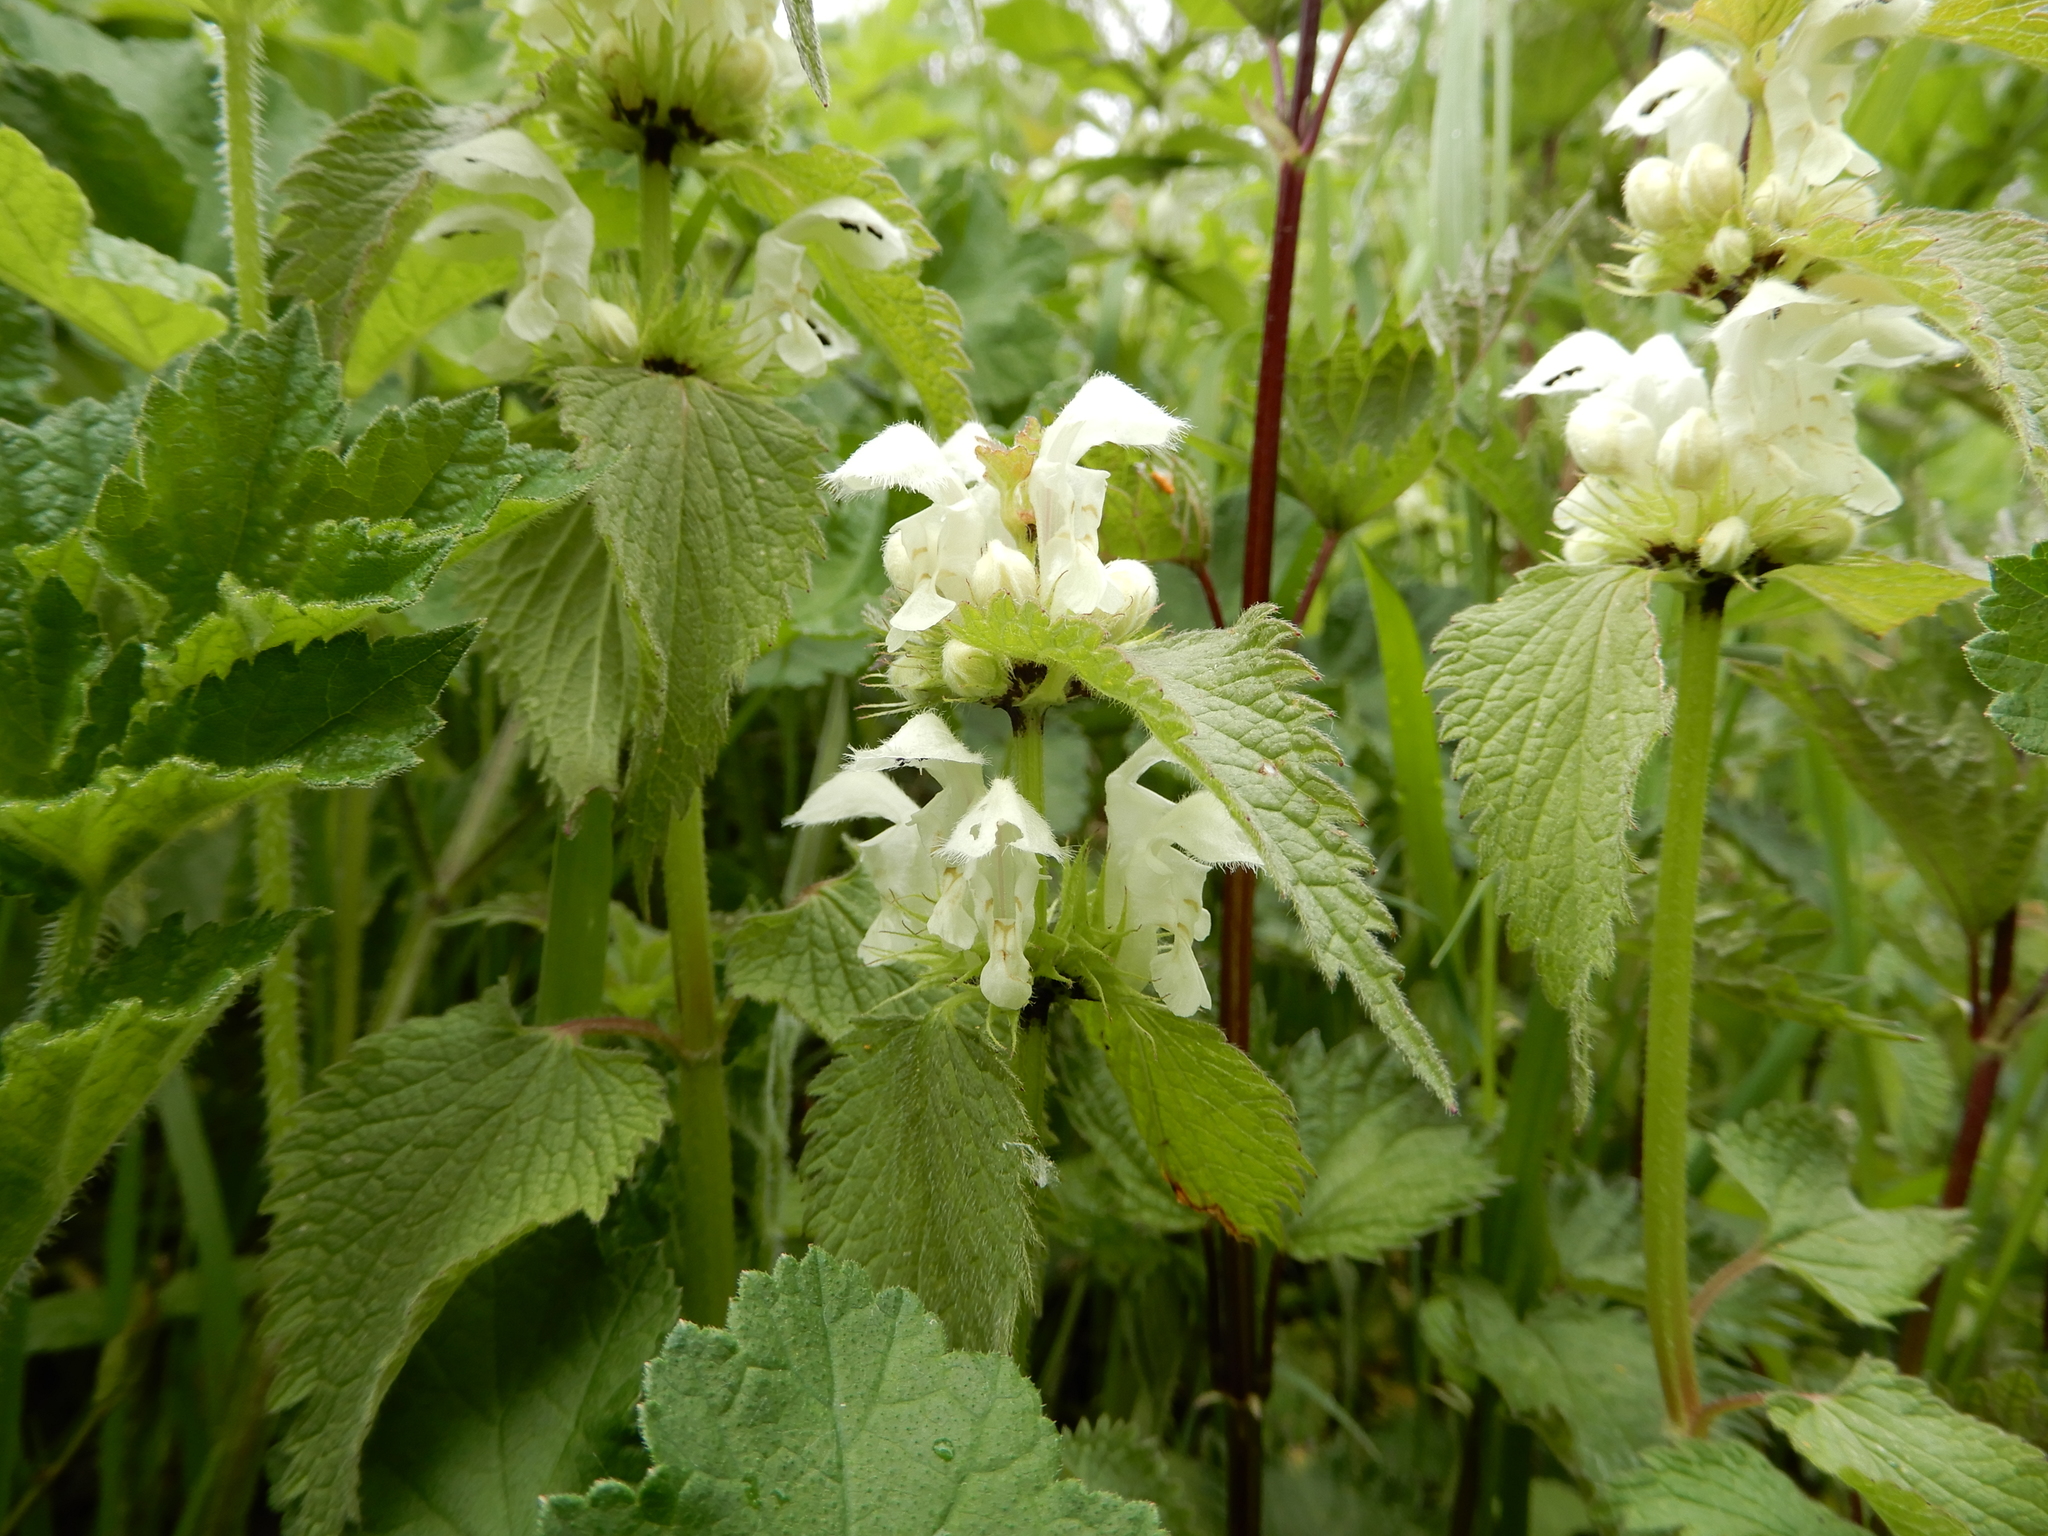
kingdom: Plantae
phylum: Tracheophyta
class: Magnoliopsida
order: Lamiales
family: Lamiaceae
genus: Lamium
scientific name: Lamium album
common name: White dead-nettle
